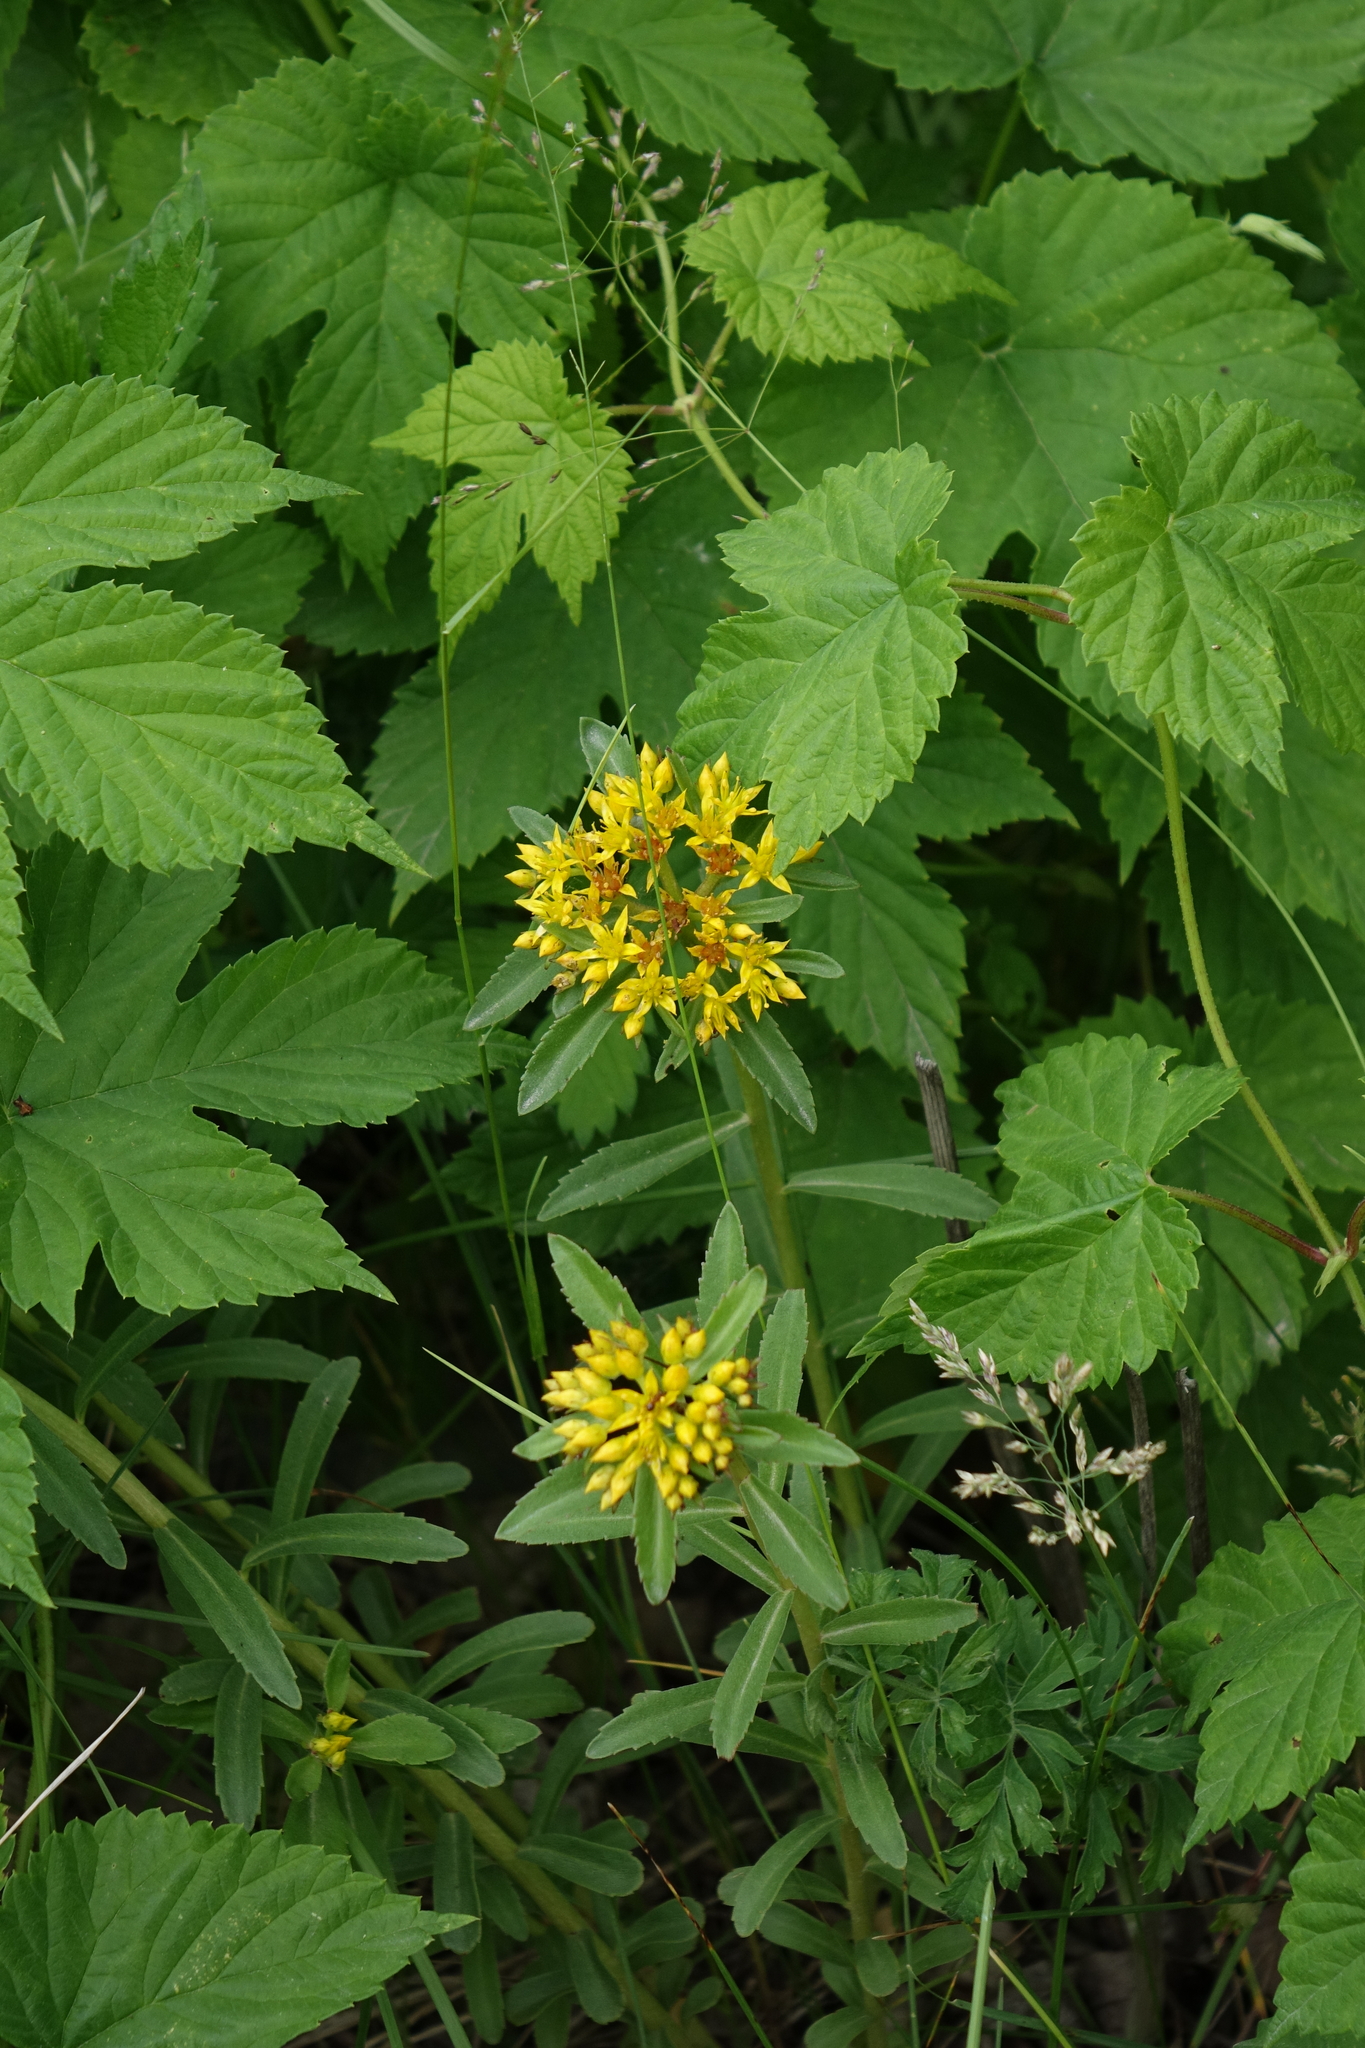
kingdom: Plantae
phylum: Tracheophyta
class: Magnoliopsida
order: Saxifragales
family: Crassulaceae
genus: Phedimus
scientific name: Phedimus aizoon
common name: Orpin aizoon
